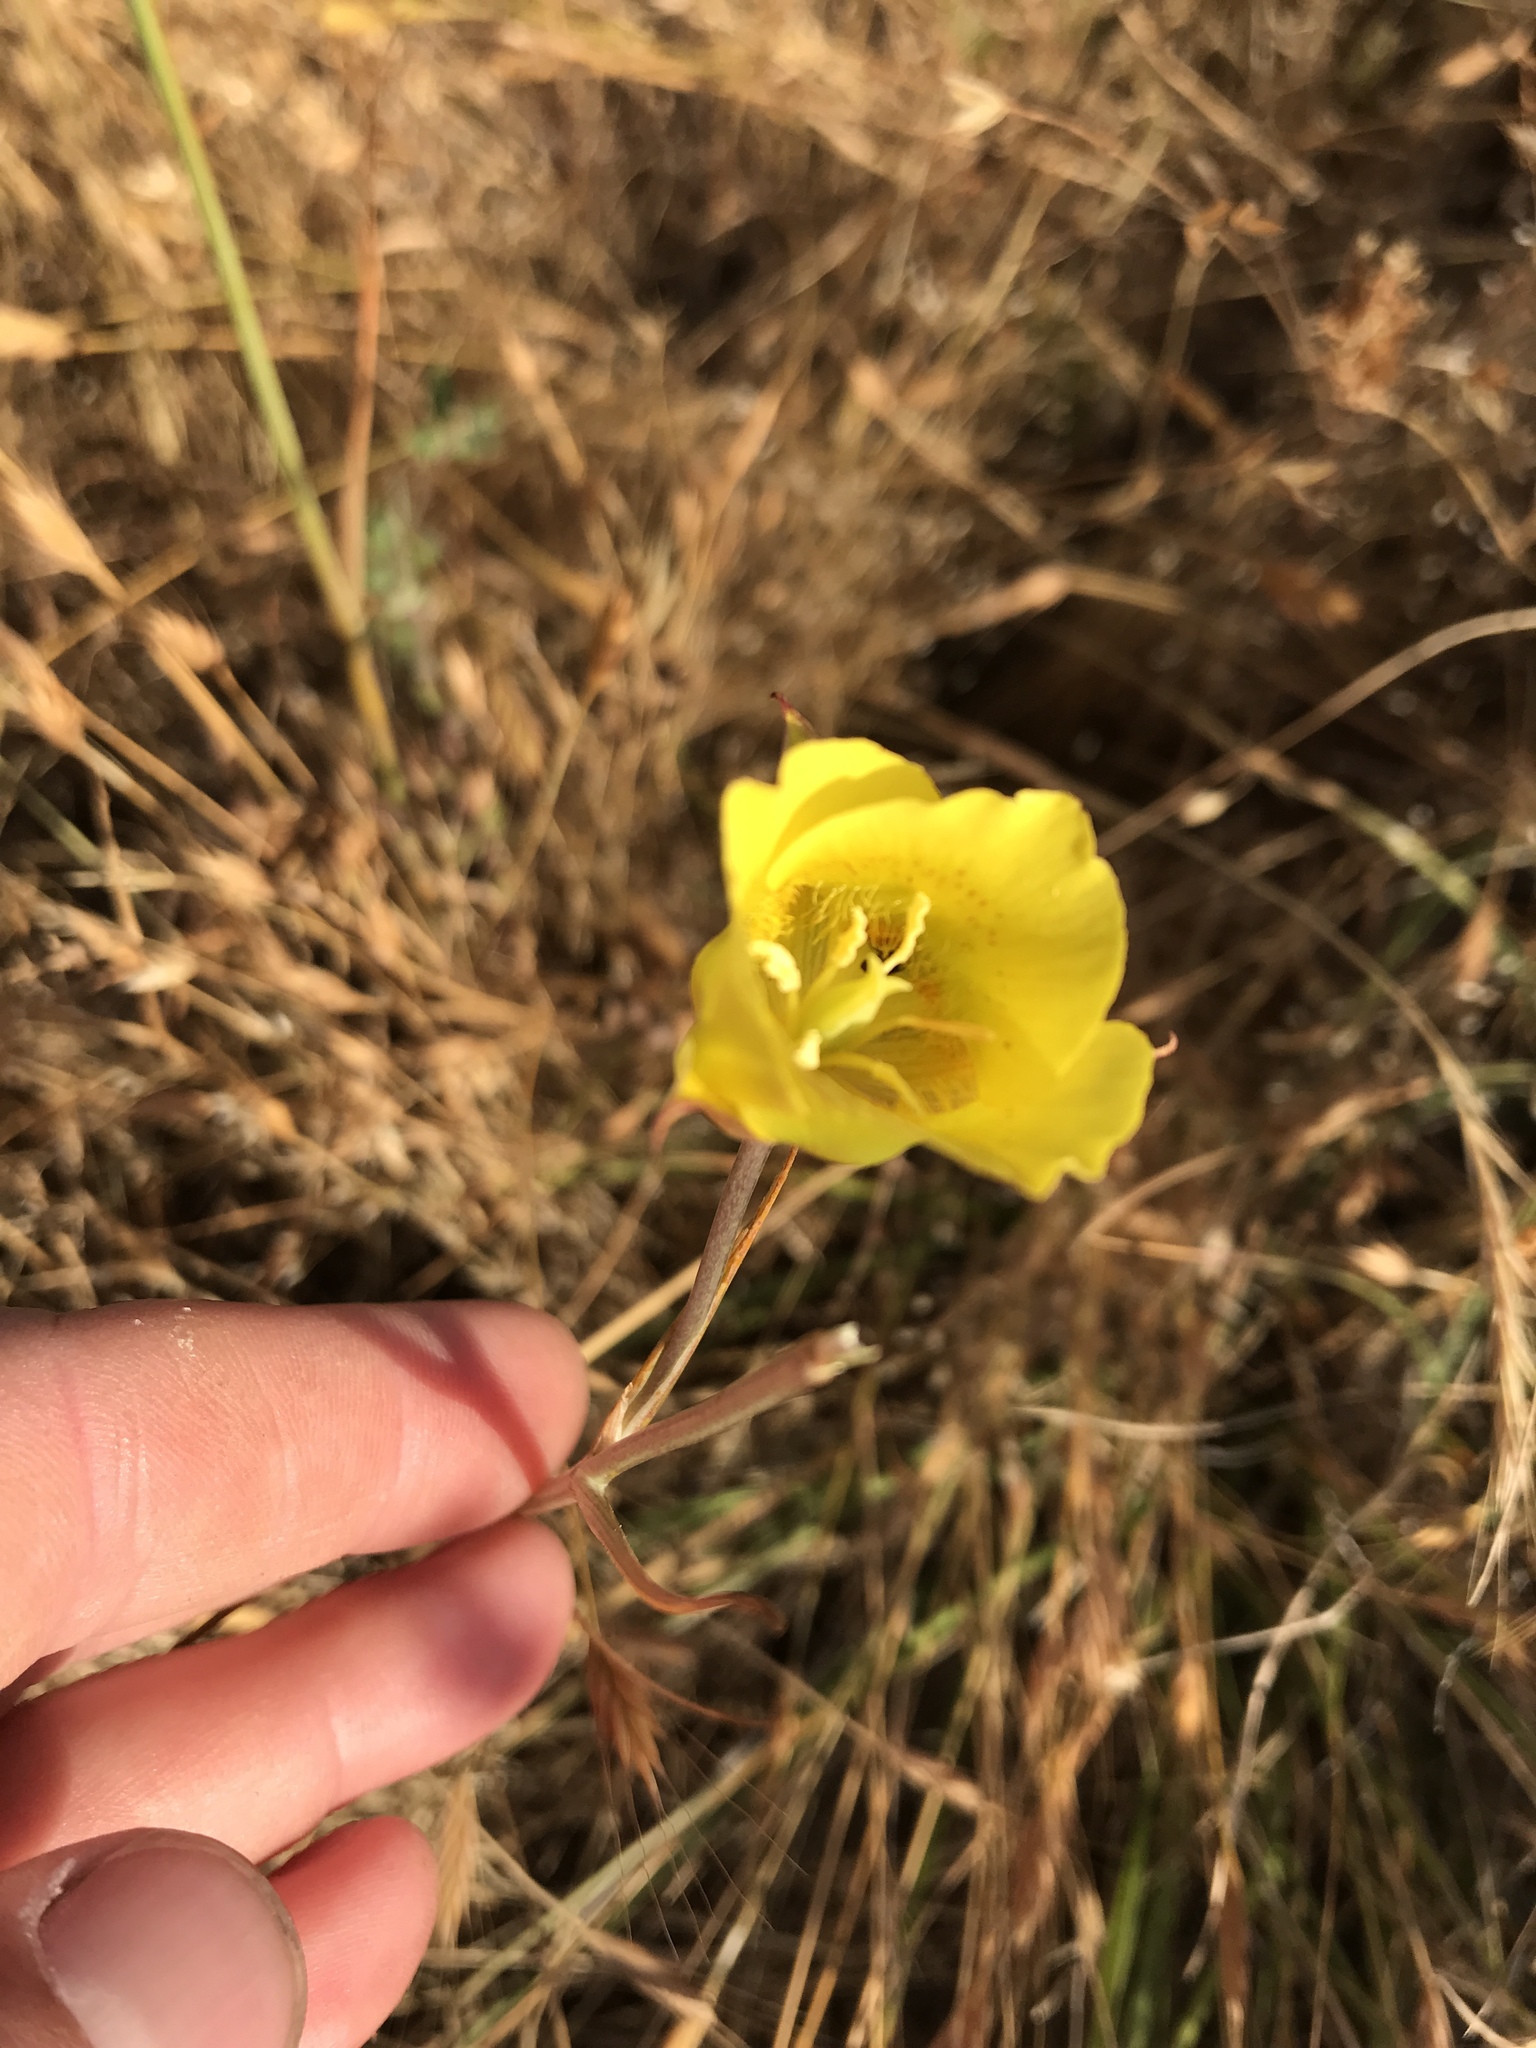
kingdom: Plantae
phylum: Tracheophyta
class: Liliopsida
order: Liliales
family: Liliaceae
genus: Calochortus
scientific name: Calochortus luteus
